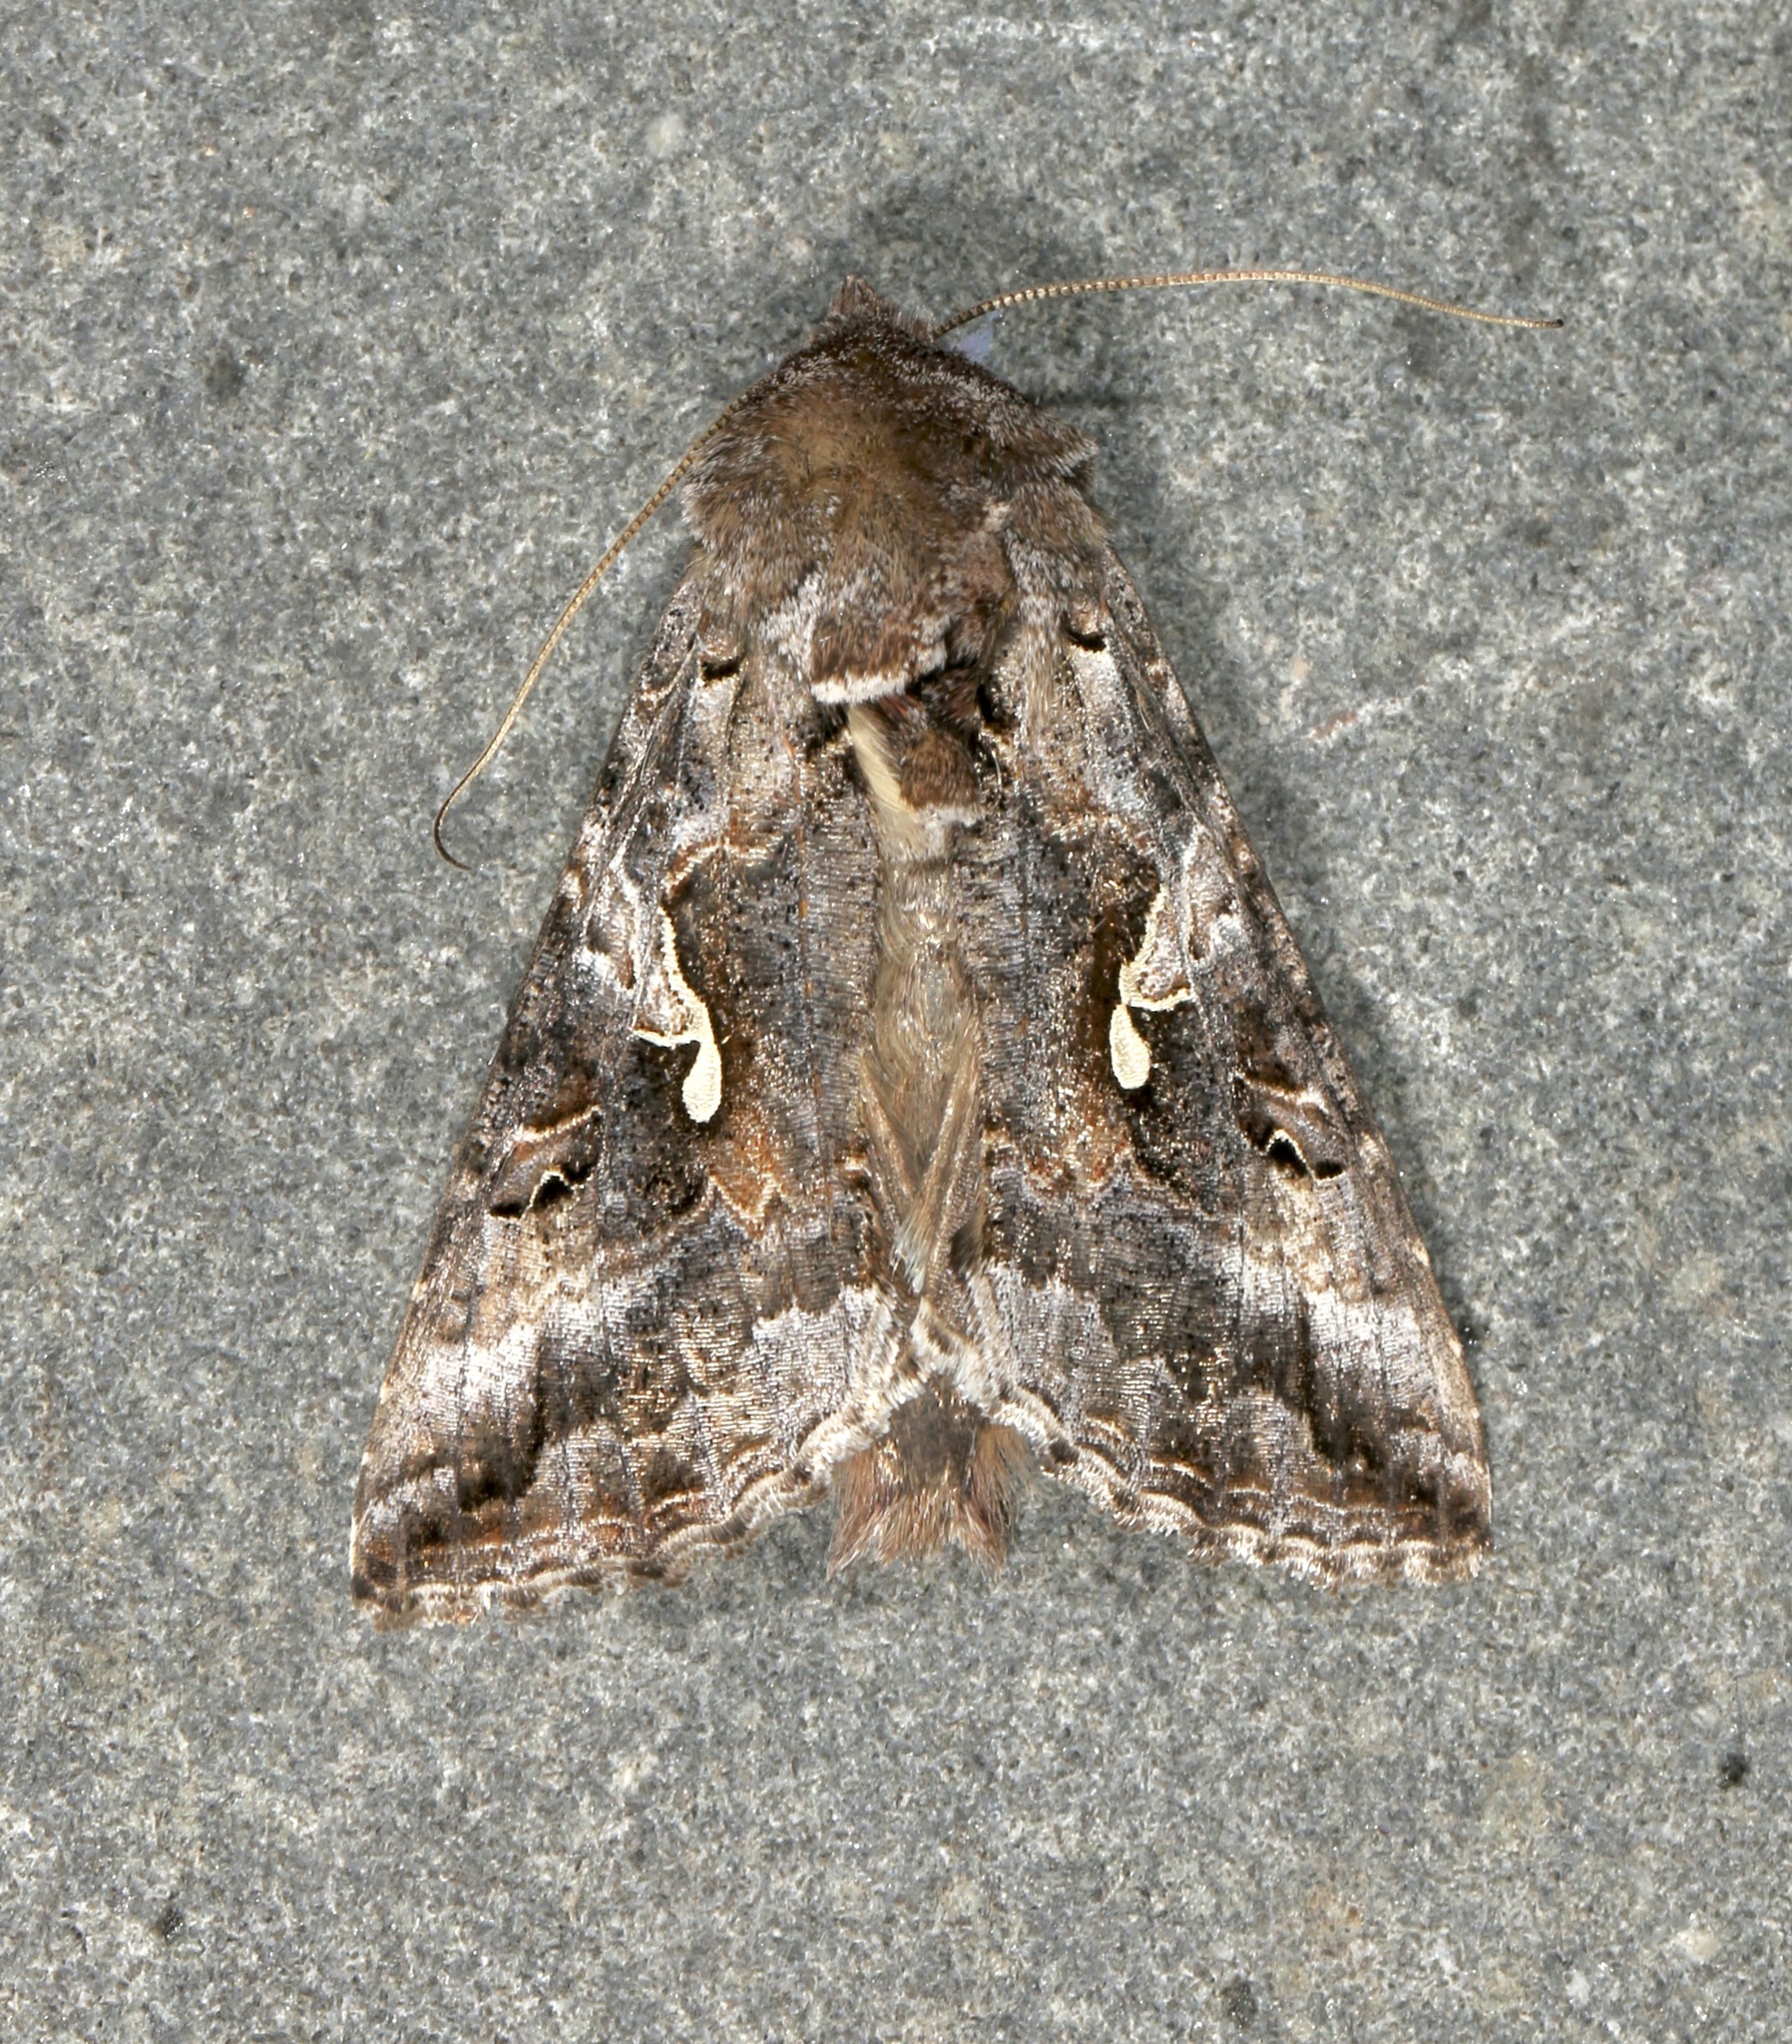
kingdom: Animalia
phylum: Arthropoda
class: Insecta
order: Lepidoptera
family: Noctuidae
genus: Autographa
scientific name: Autographa californica
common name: Alfalfa looper
